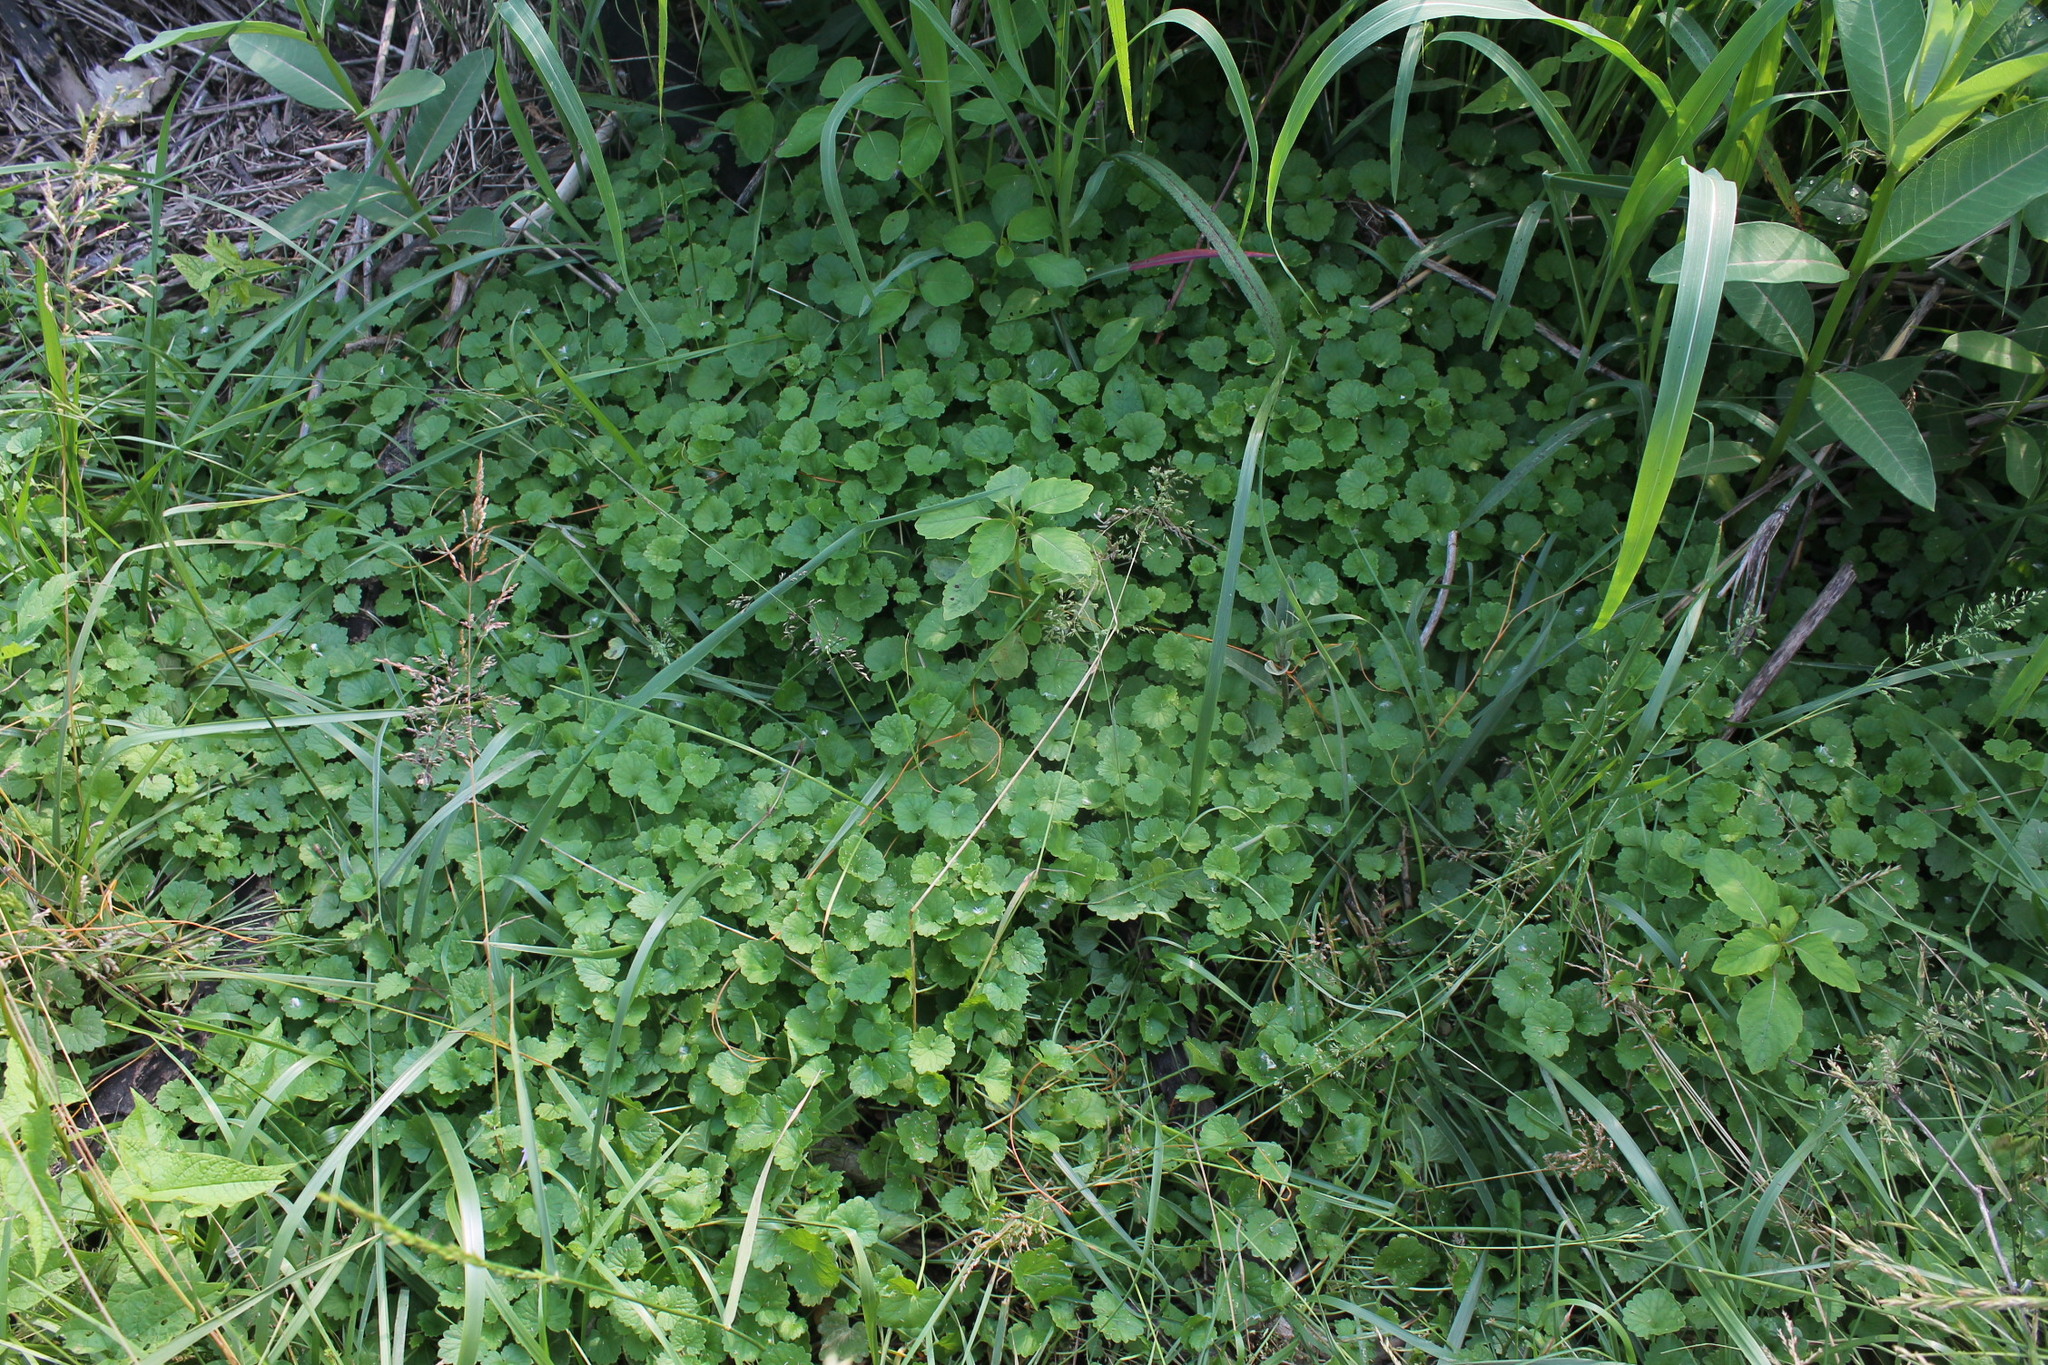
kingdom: Plantae
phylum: Tracheophyta
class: Magnoliopsida
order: Lamiales
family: Lamiaceae
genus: Glechoma
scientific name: Glechoma hederacea
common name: Ground ivy
